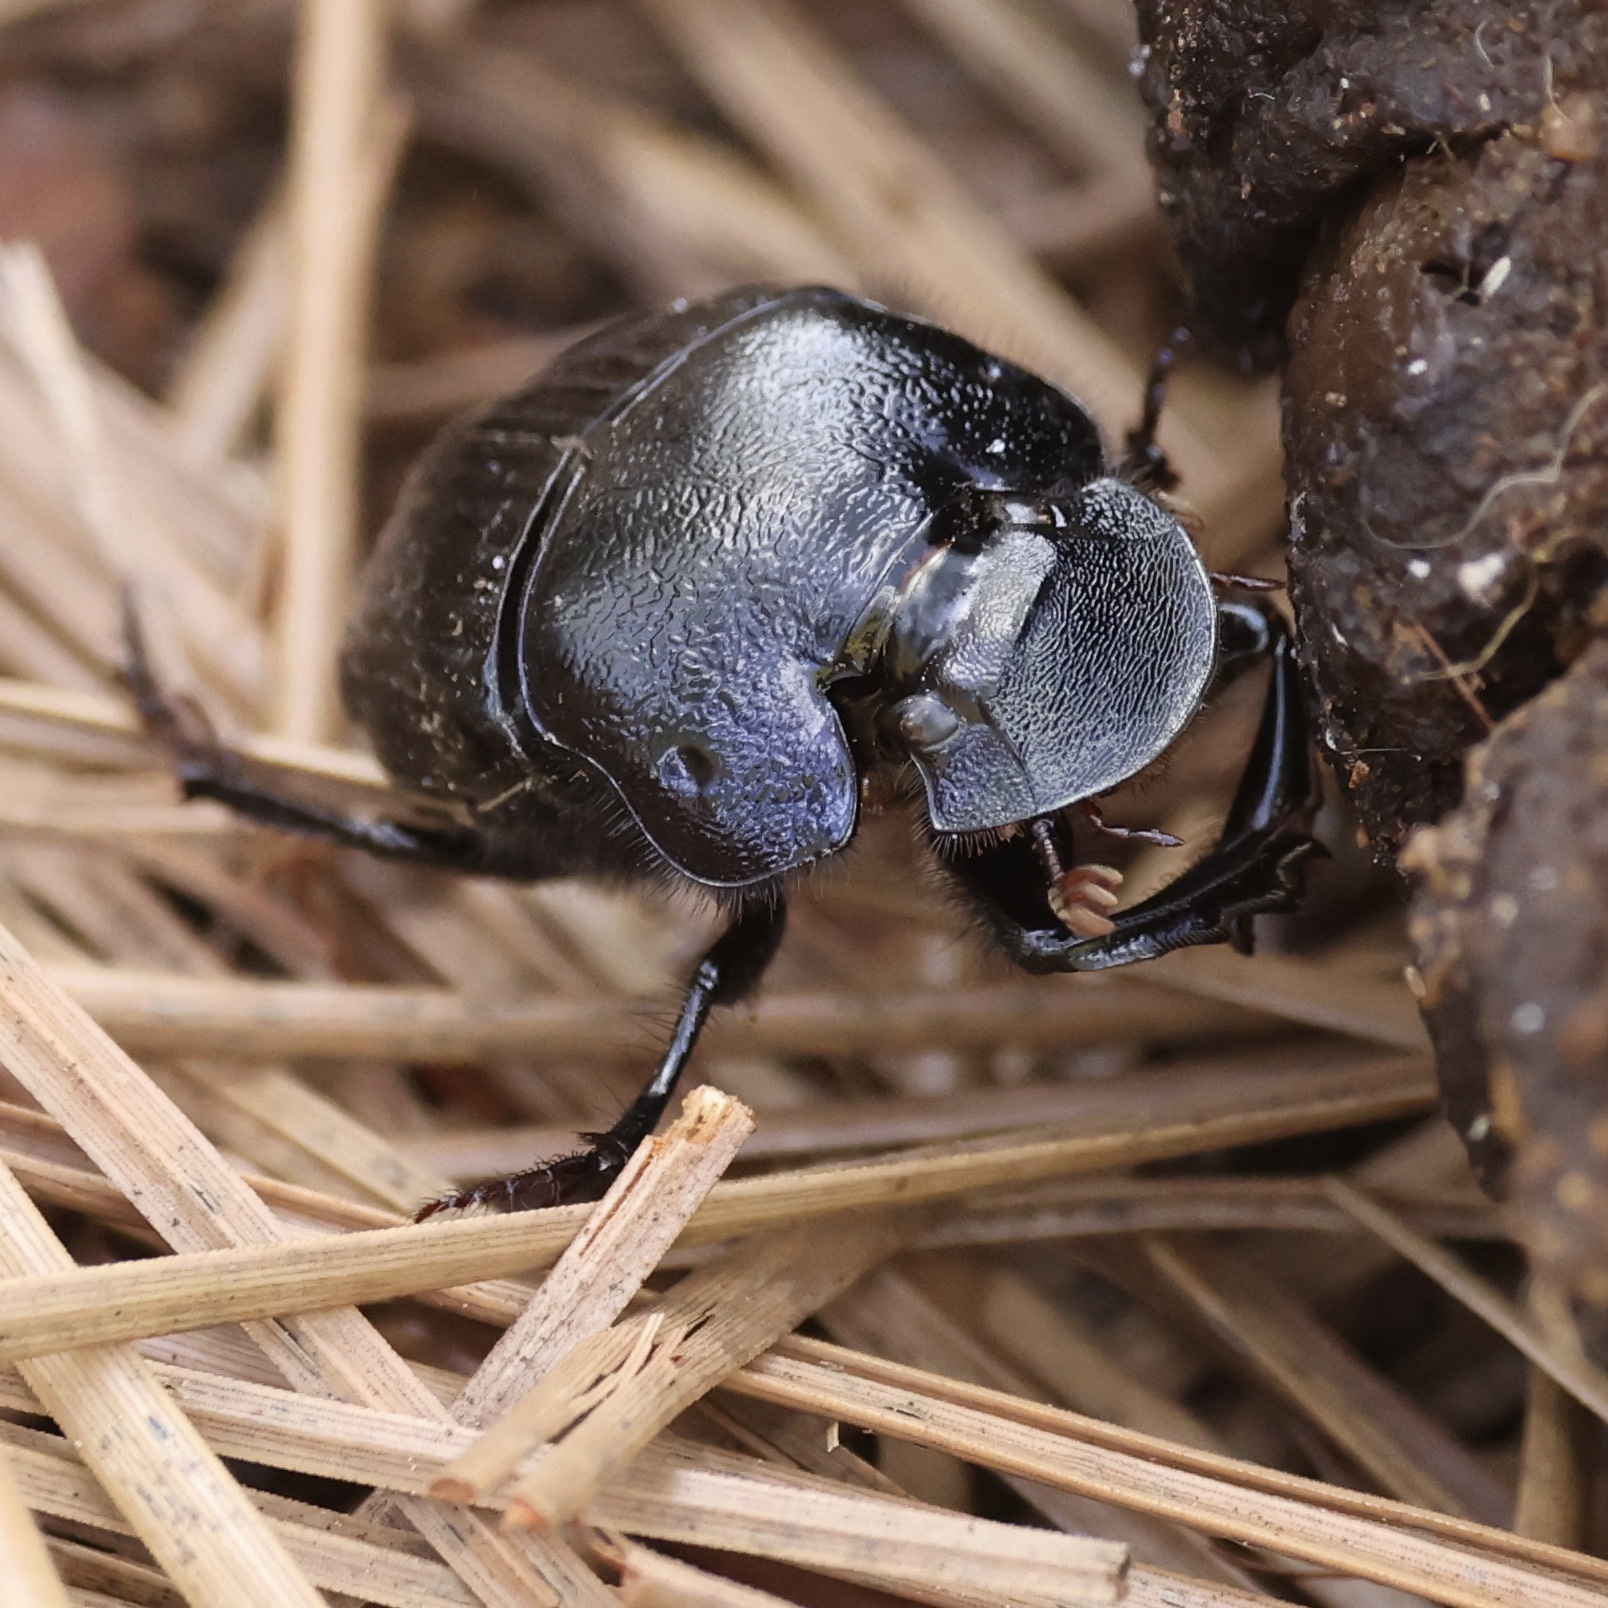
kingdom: Animalia
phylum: Arthropoda
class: Insecta
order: Coleoptera
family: Scarabaeidae
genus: Phanaeus
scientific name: Phanaeus igneus
